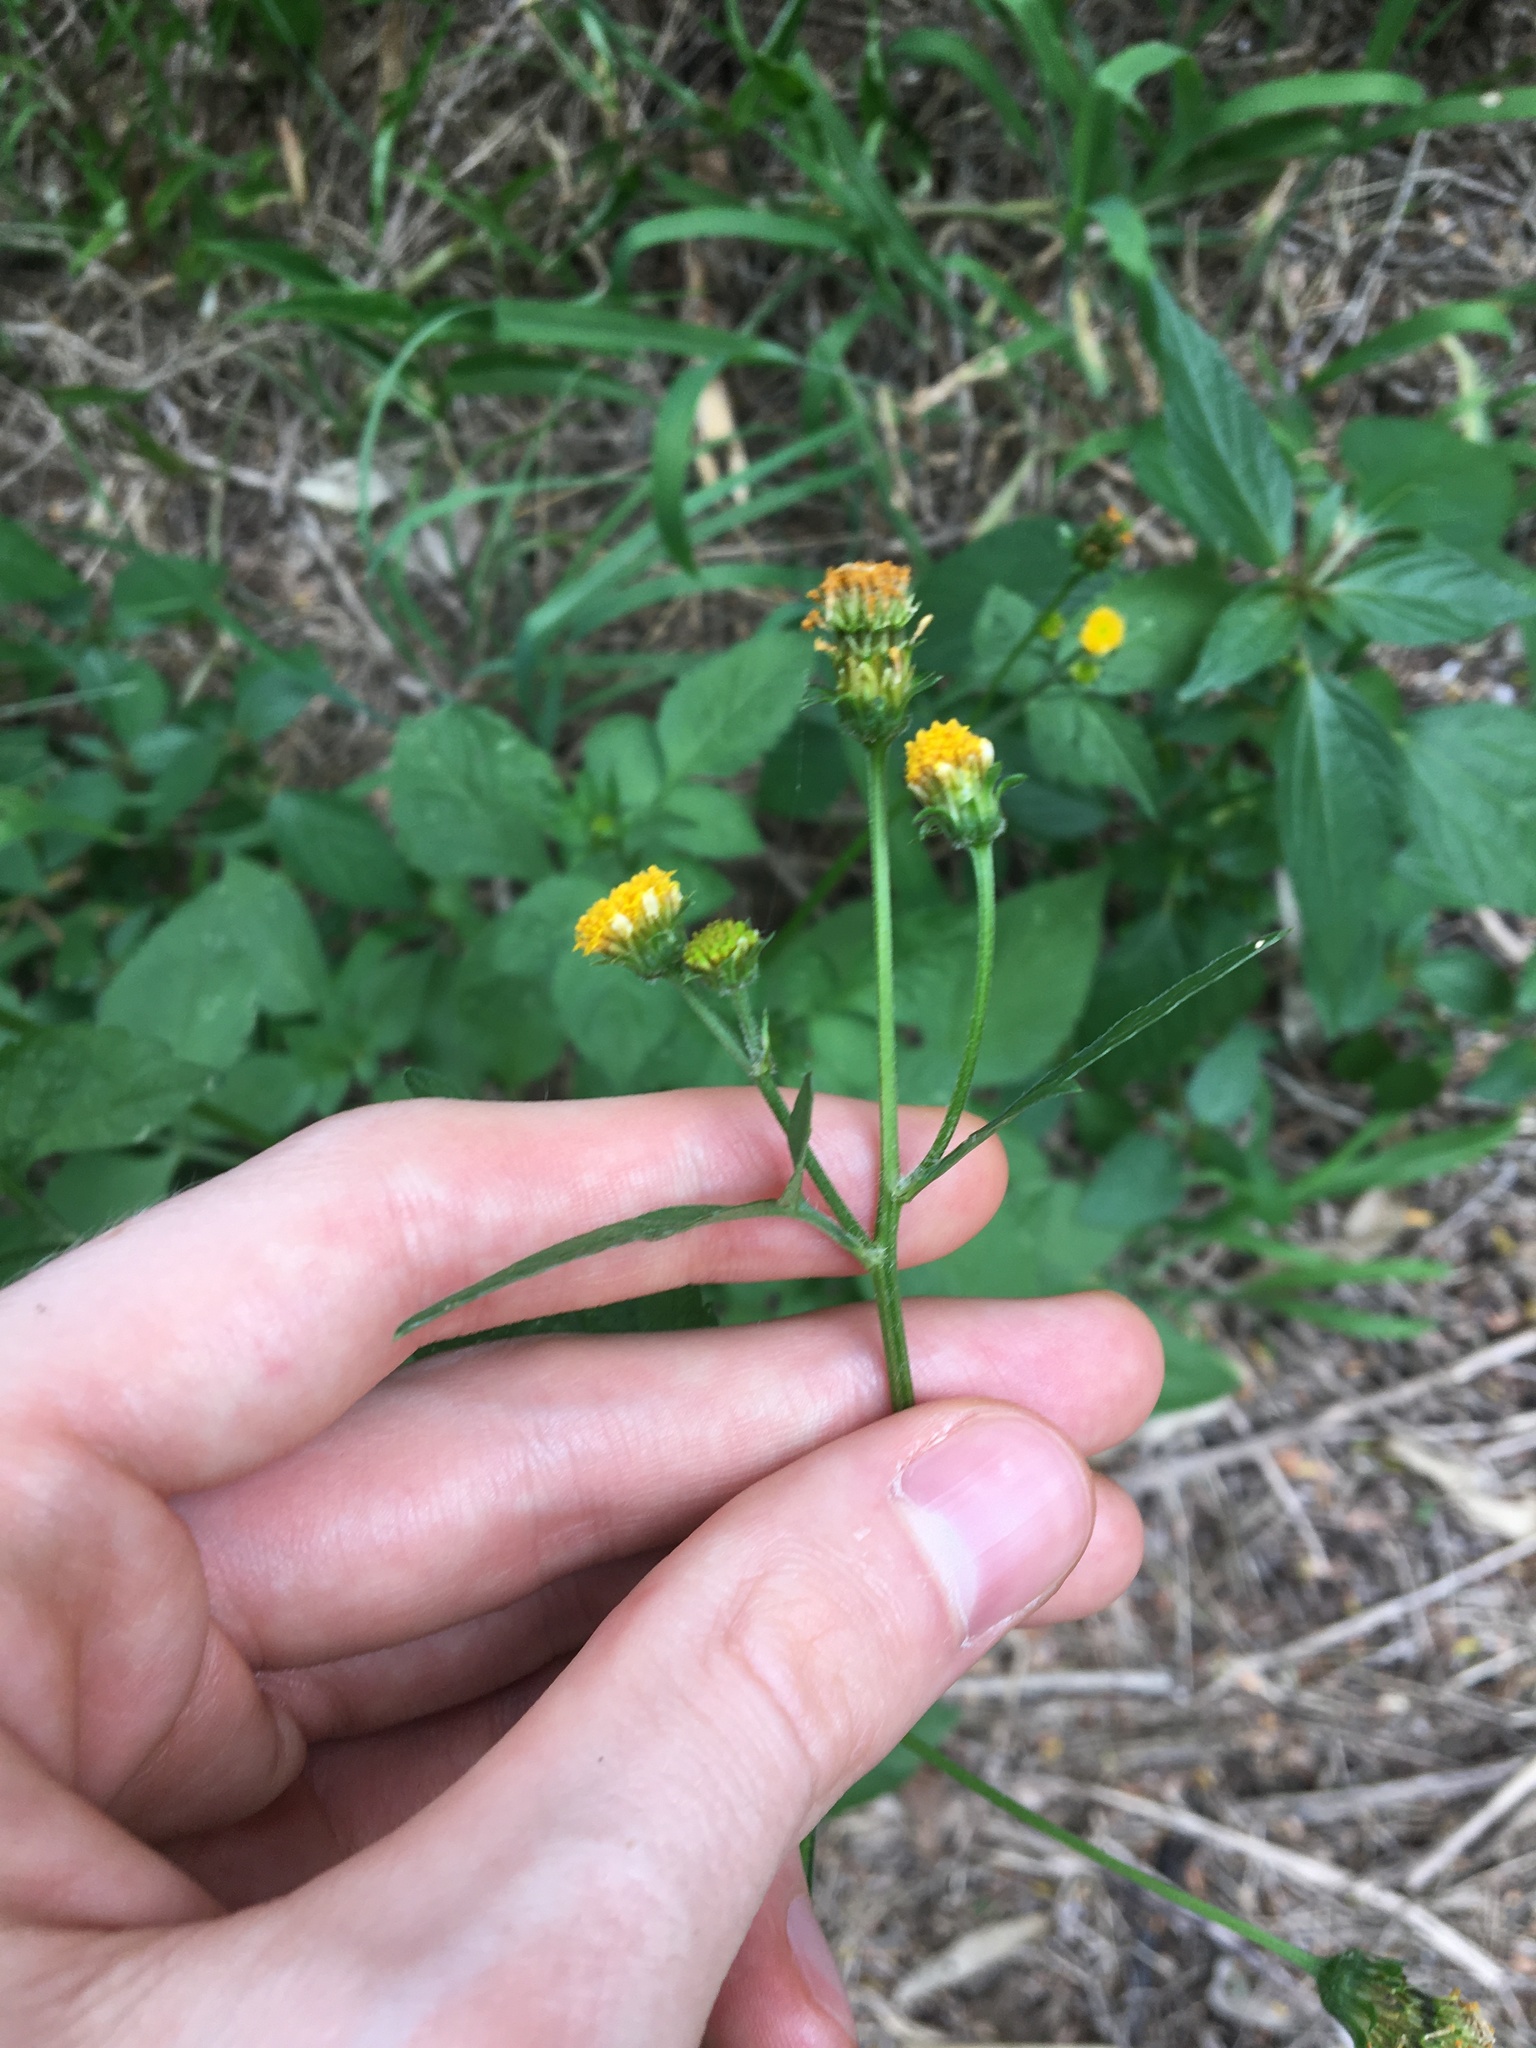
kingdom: Plantae
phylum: Tracheophyta
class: Magnoliopsida
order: Asterales
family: Asteraceae
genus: Bidens
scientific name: Bidens pilosa
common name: Black-jack
